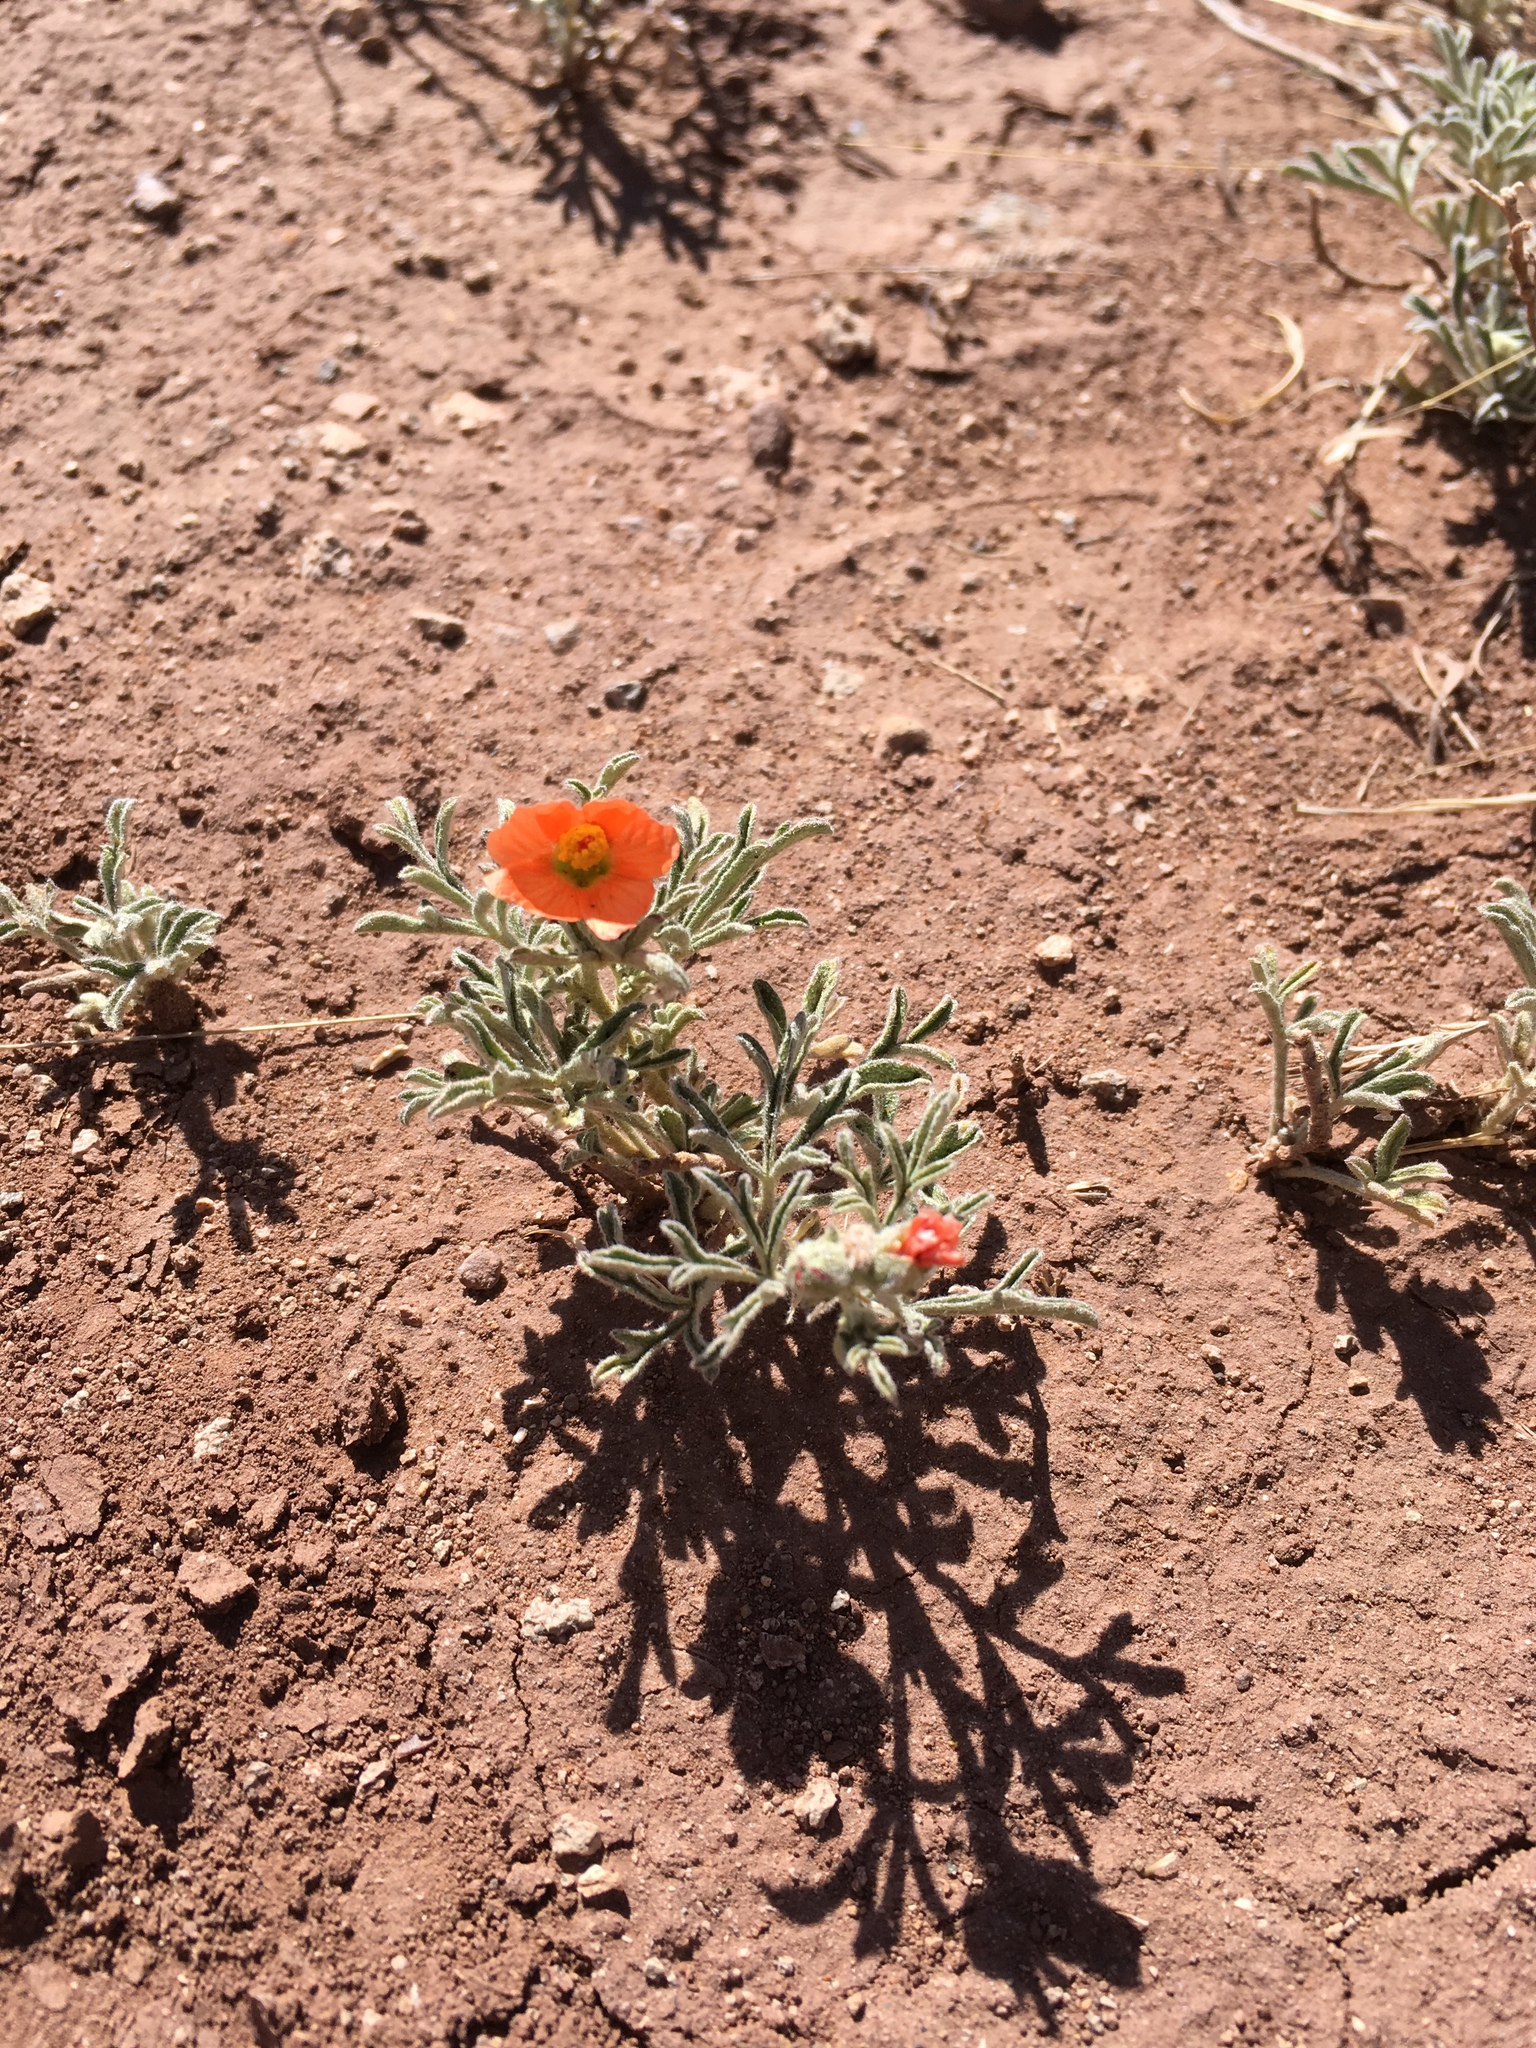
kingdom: Plantae
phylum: Tracheophyta
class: Magnoliopsida
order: Malvales
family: Malvaceae
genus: Sphaeralcea
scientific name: Sphaeralcea coccinea
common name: Moss-rose
